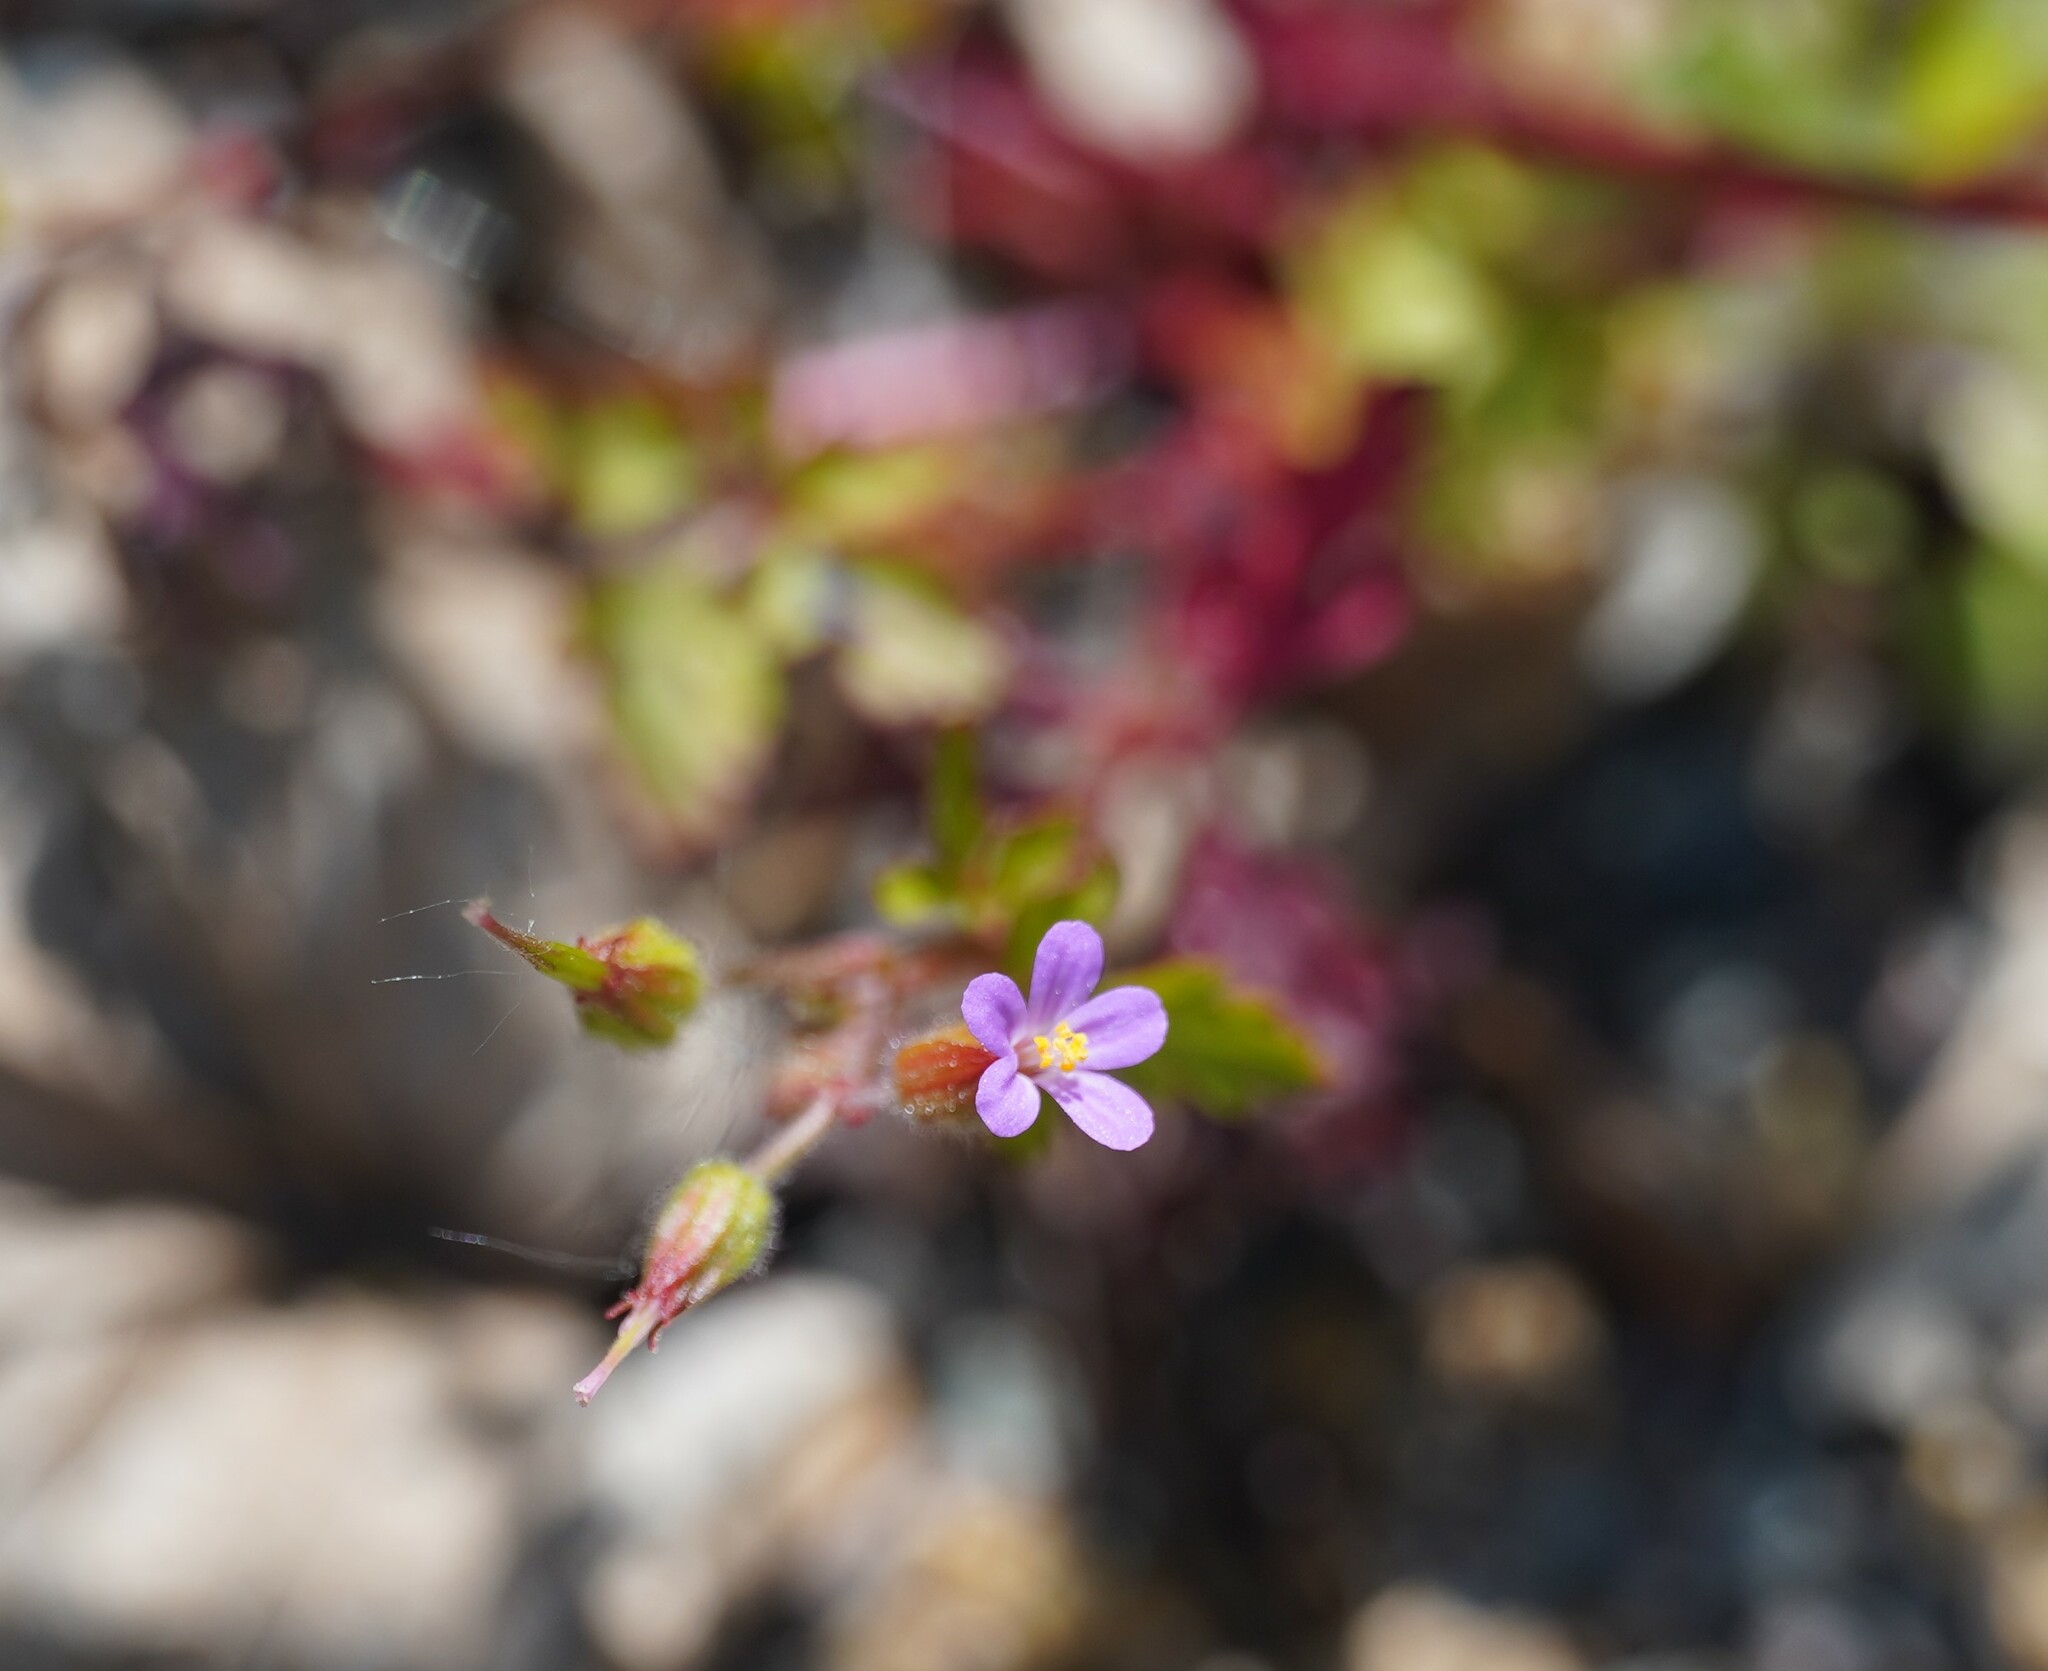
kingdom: Plantae
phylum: Tracheophyta
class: Magnoliopsida
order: Geraniales
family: Geraniaceae
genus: Geranium
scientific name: Geranium purpureum
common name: Little-robin
